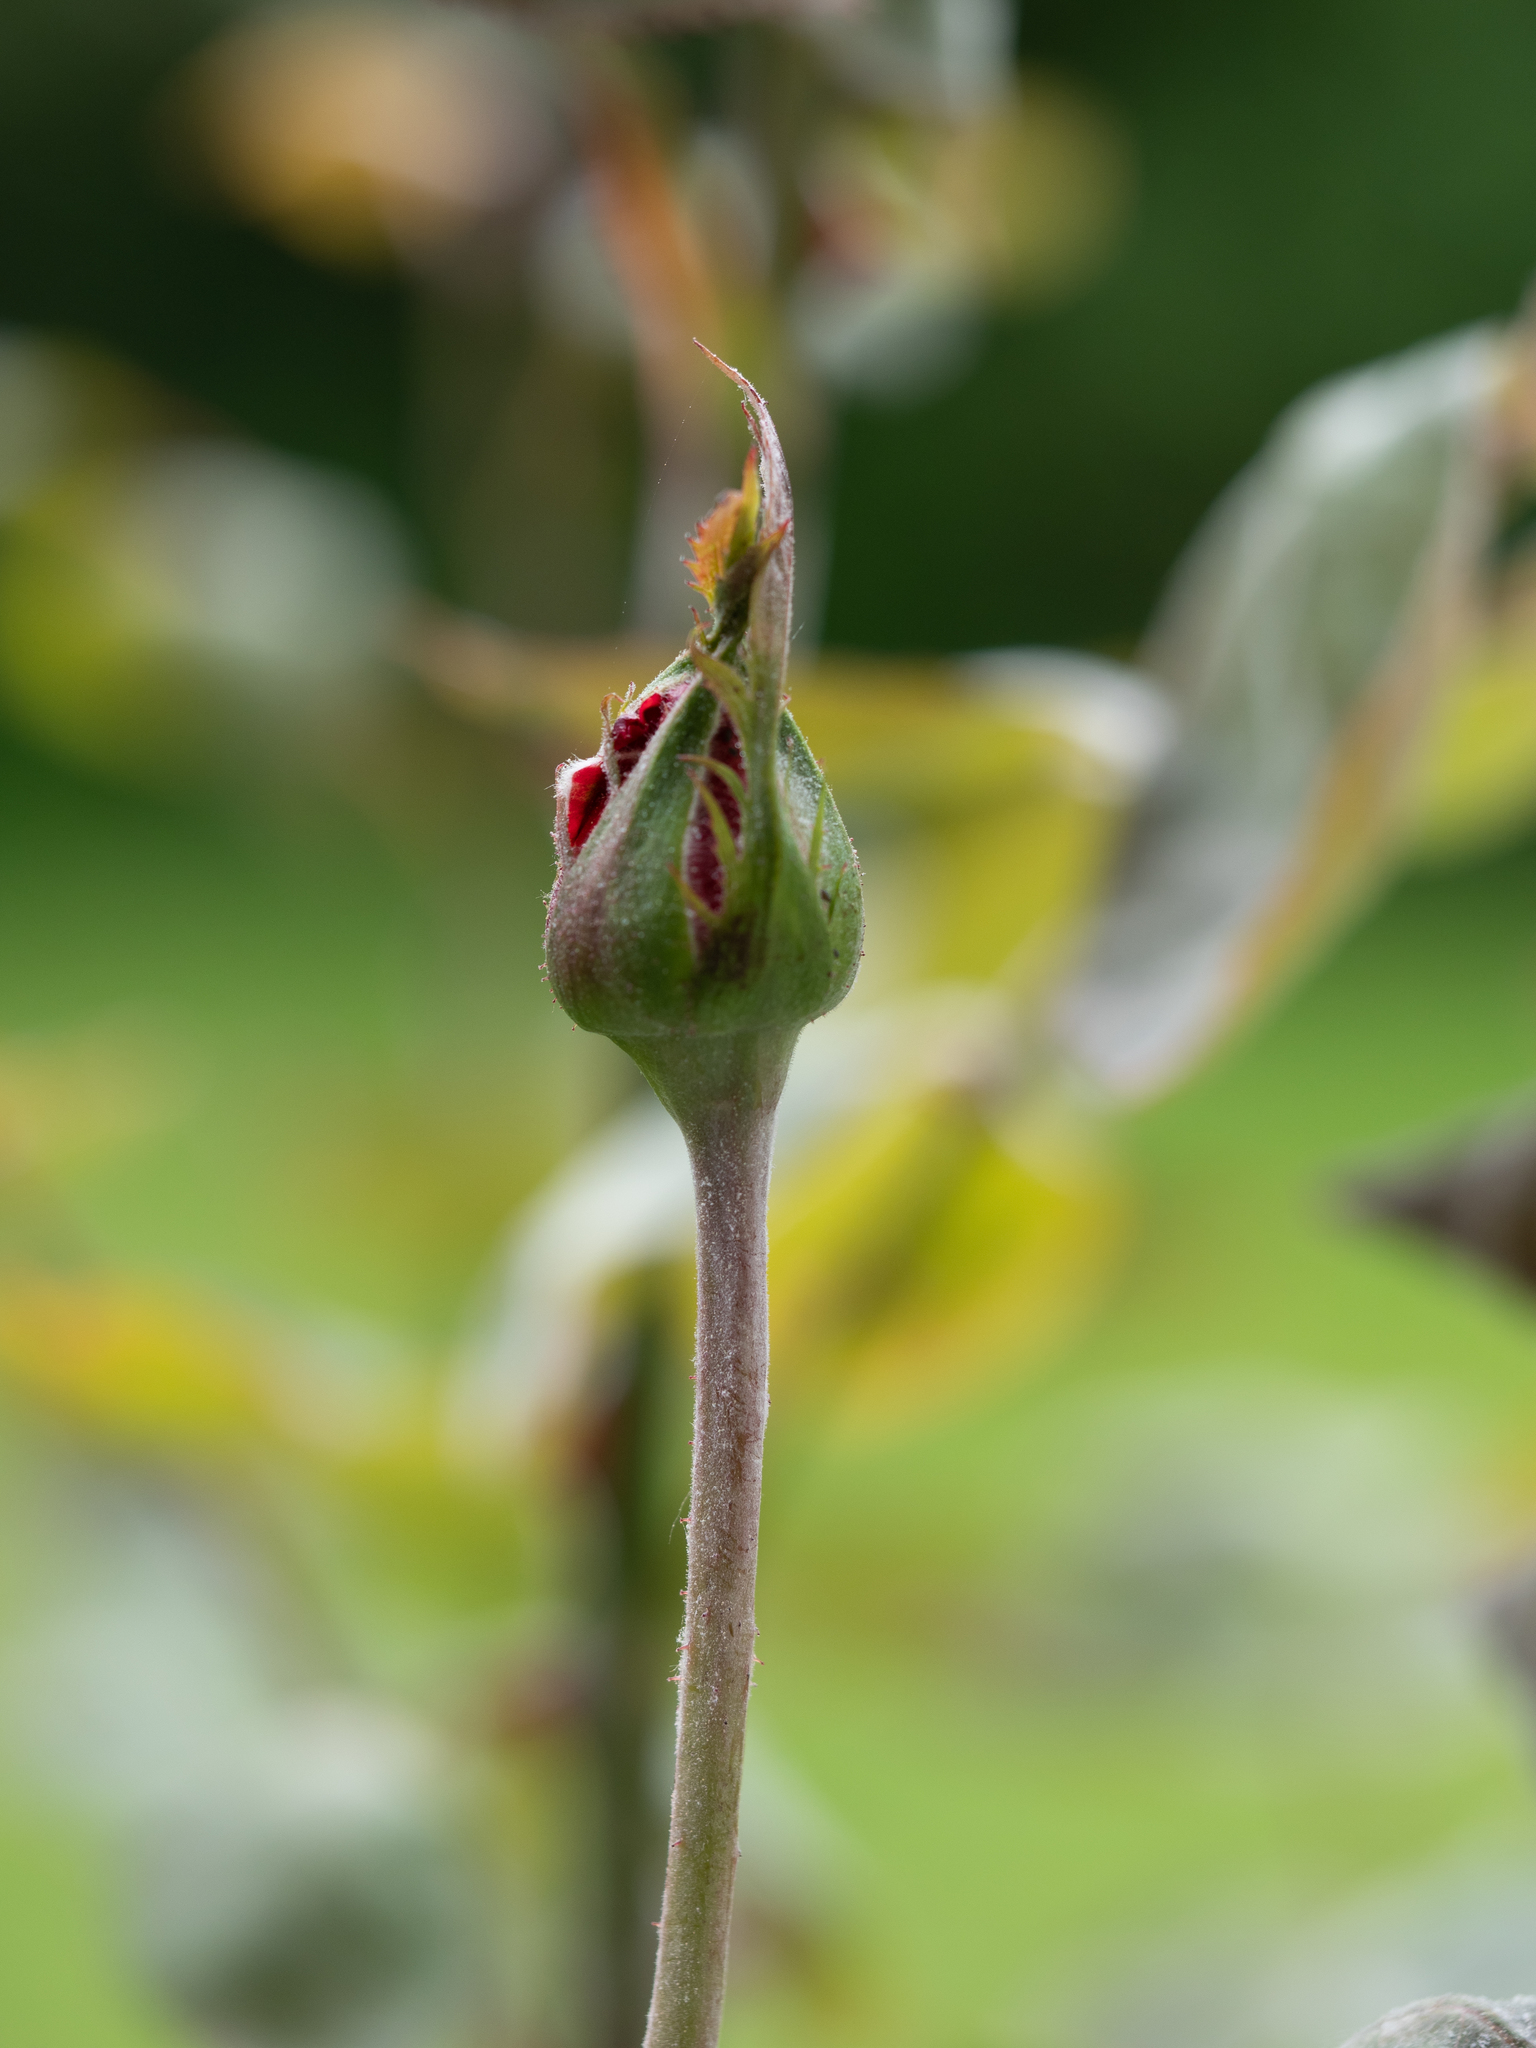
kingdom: Fungi
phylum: Ascomycota
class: Leotiomycetes
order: Helotiales
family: Erysiphaceae
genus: Podosphaera
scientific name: Podosphaera pannosa
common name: Rose mildew
